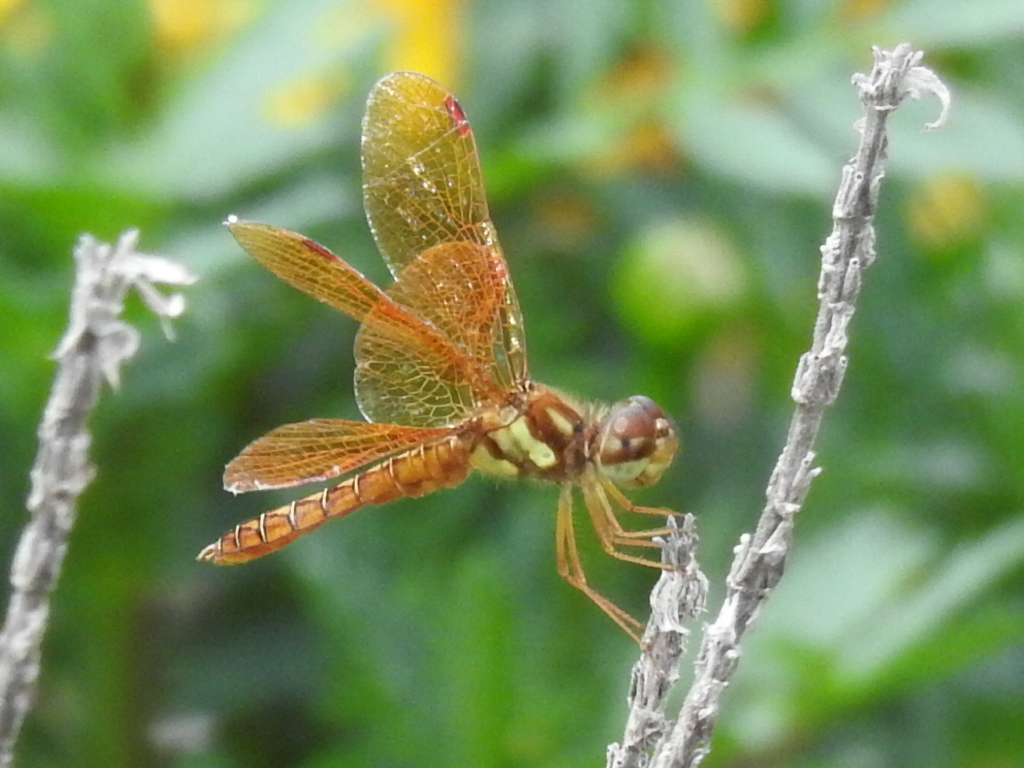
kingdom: Animalia
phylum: Arthropoda
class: Insecta
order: Odonata
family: Libellulidae
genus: Perithemis
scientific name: Perithemis tenera
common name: Eastern amberwing
